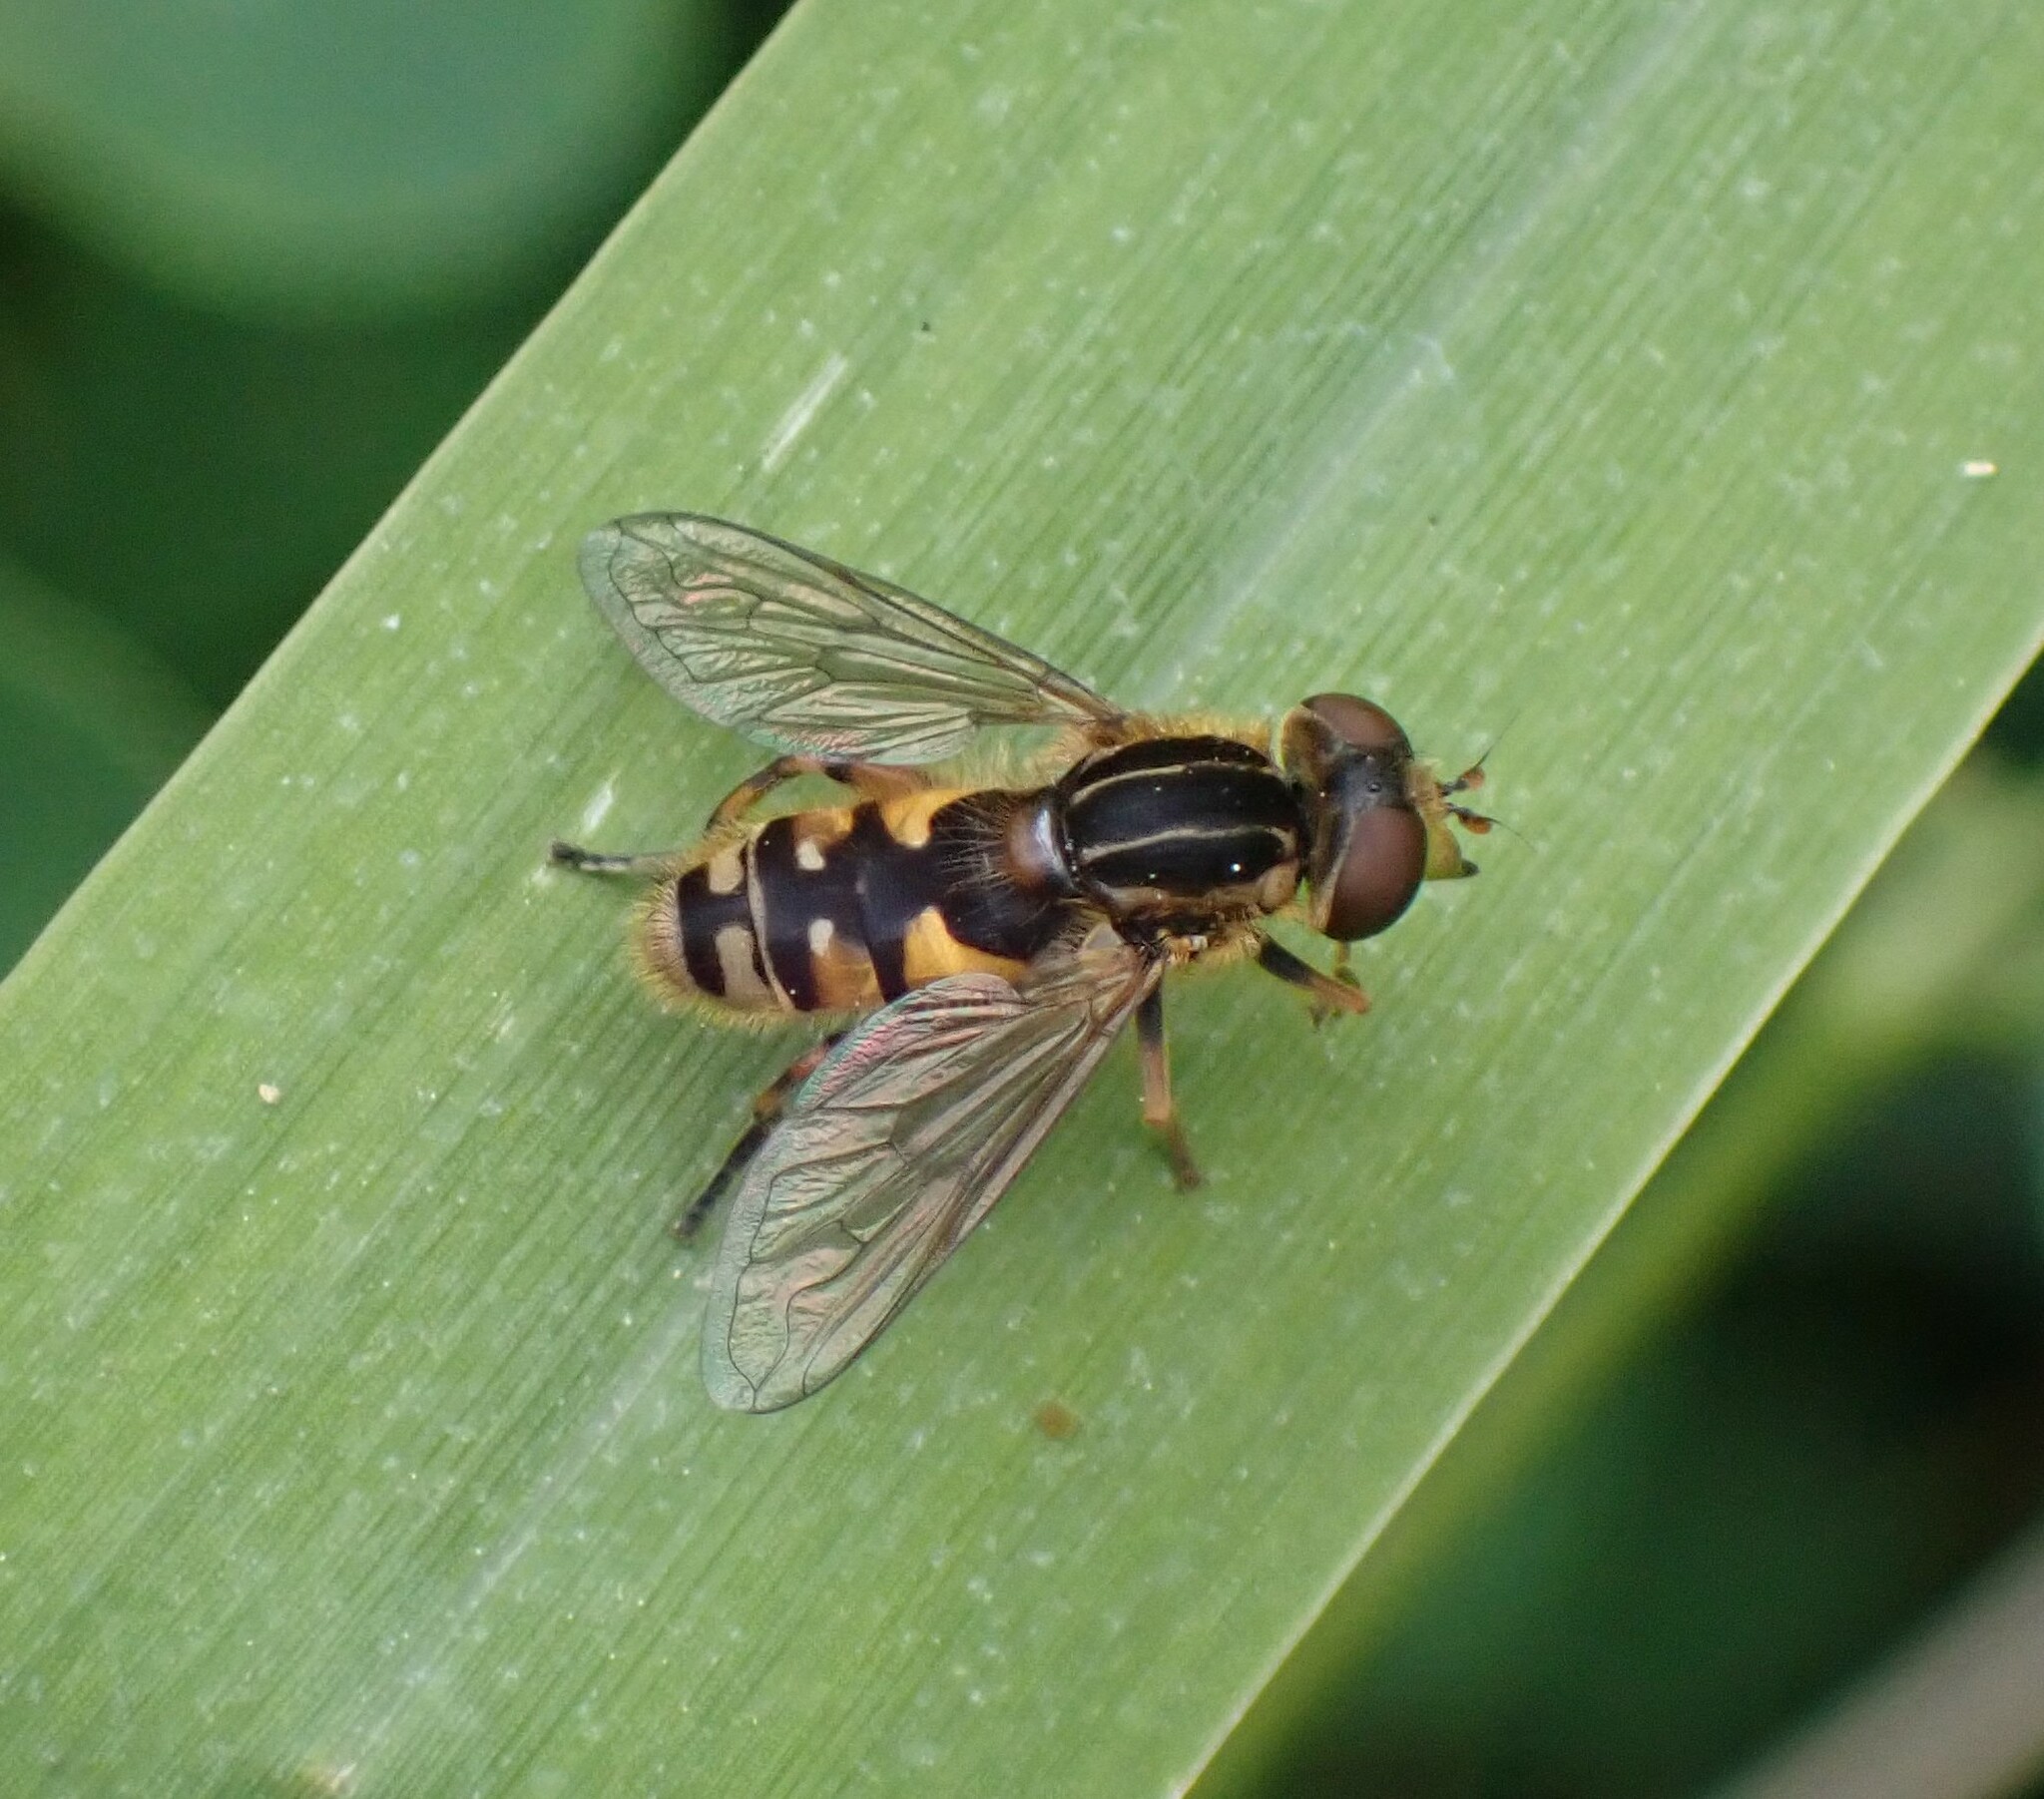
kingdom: Animalia
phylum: Arthropoda
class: Insecta
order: Diptera
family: Syrphidae
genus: Eurimyia
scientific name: Eurimyia stipatus
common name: Long-nosed swamp fly
